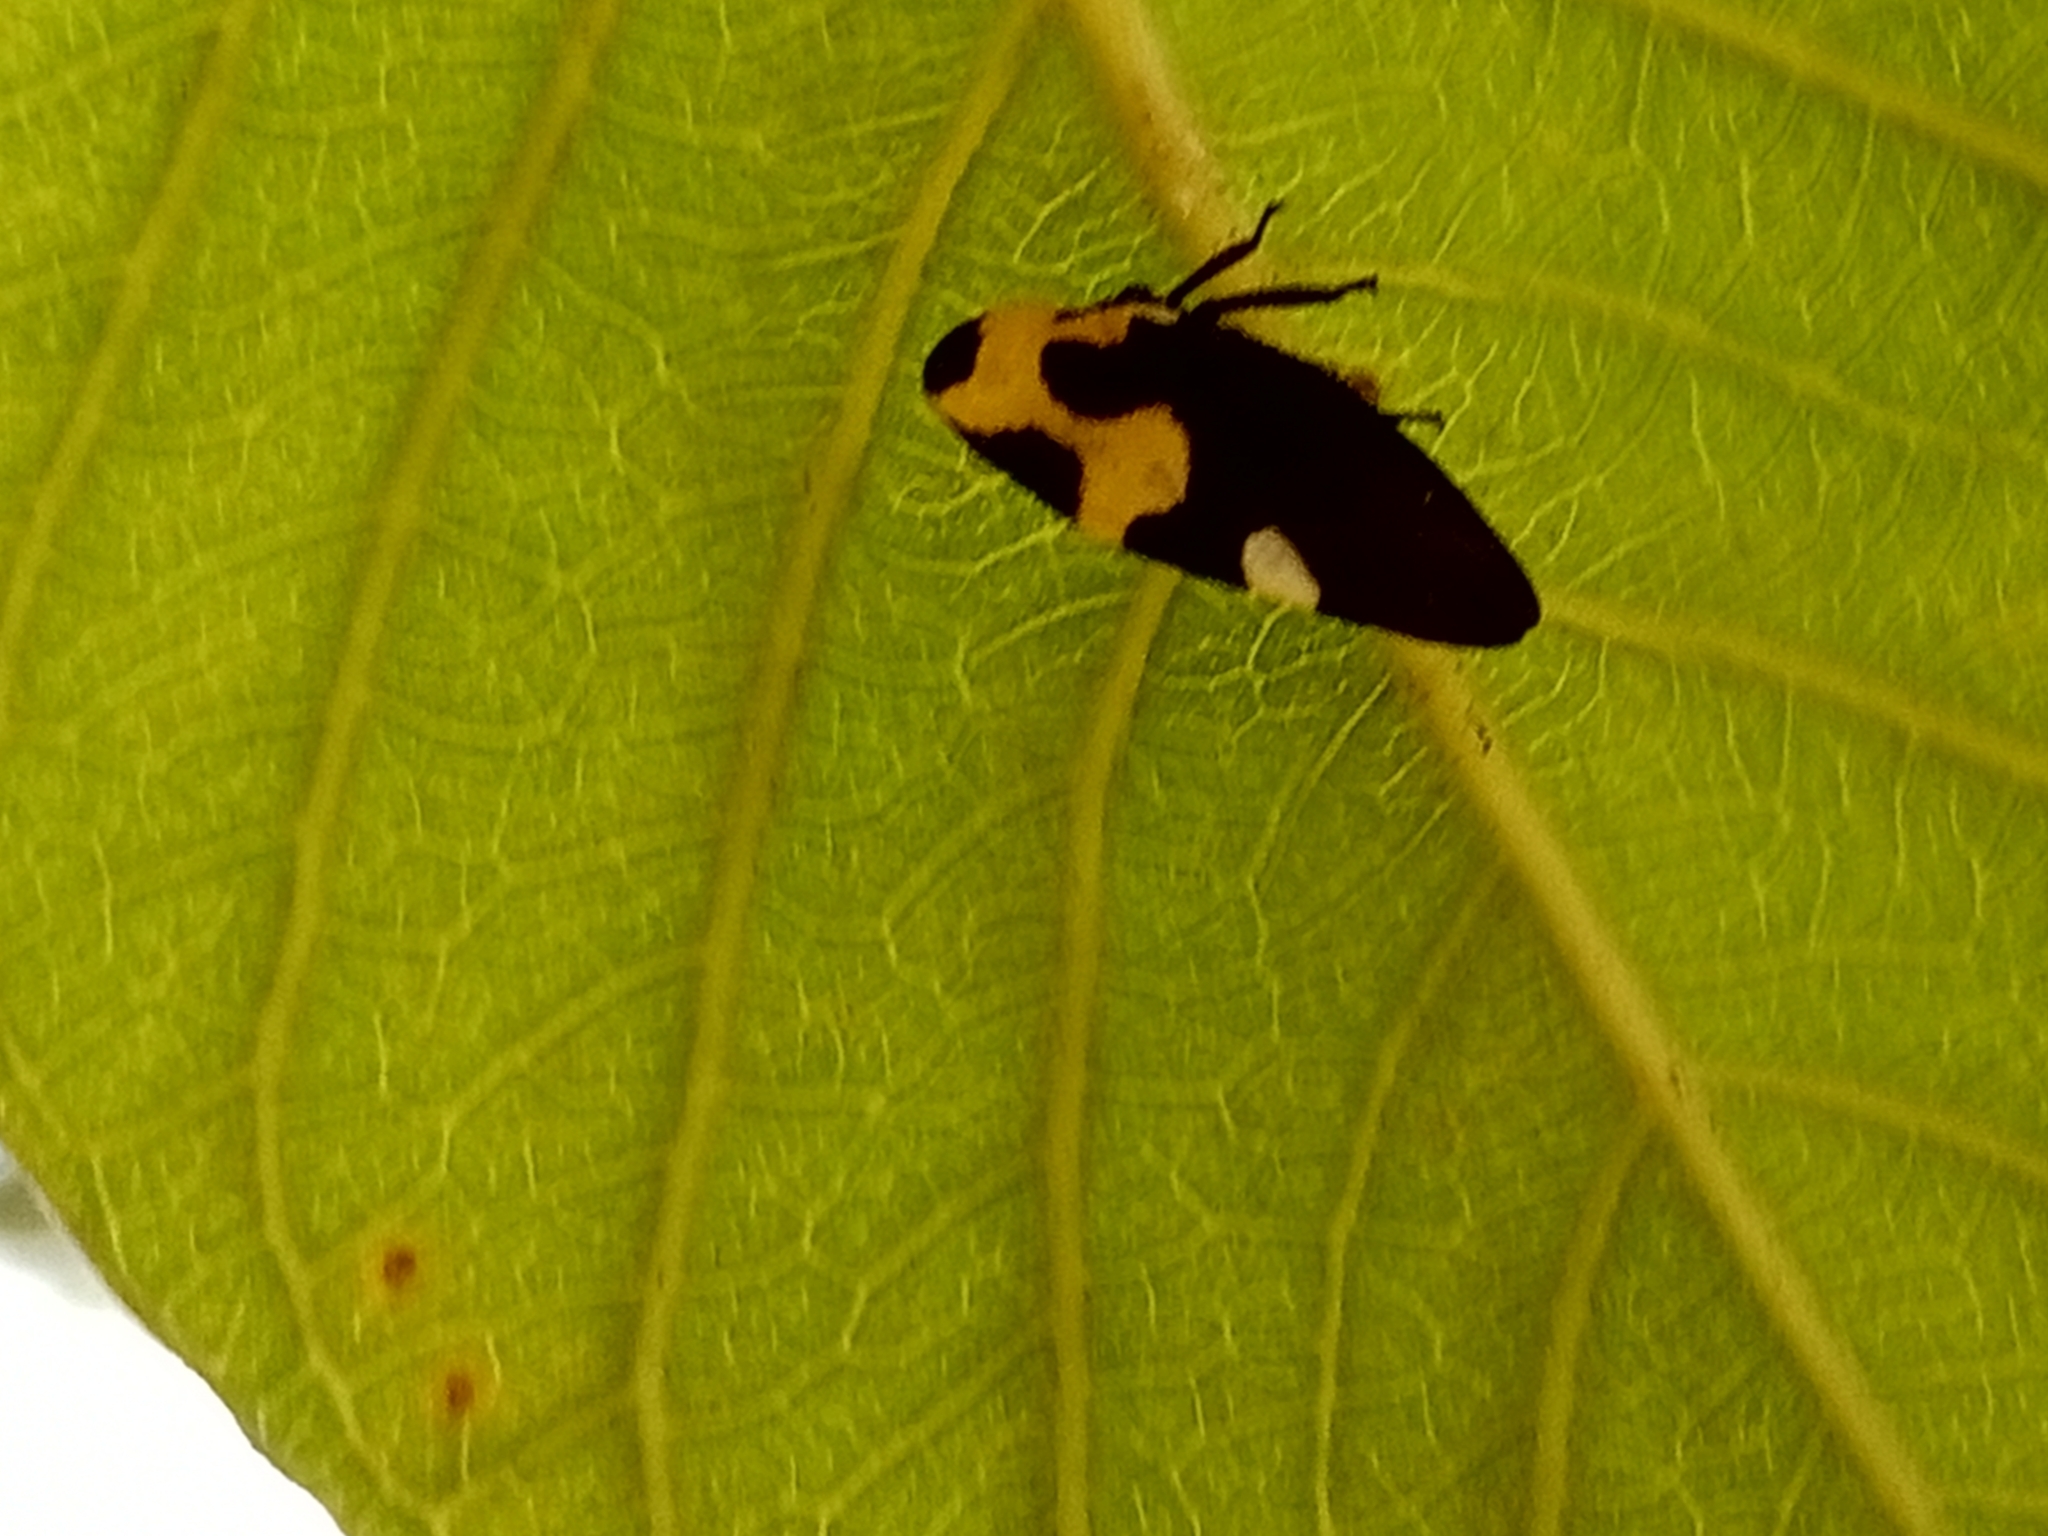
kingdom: Animalia
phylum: Arthropoda
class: Insecta
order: Hemiptera
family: Membracidae
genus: Membracis
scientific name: Membracis mexicana
